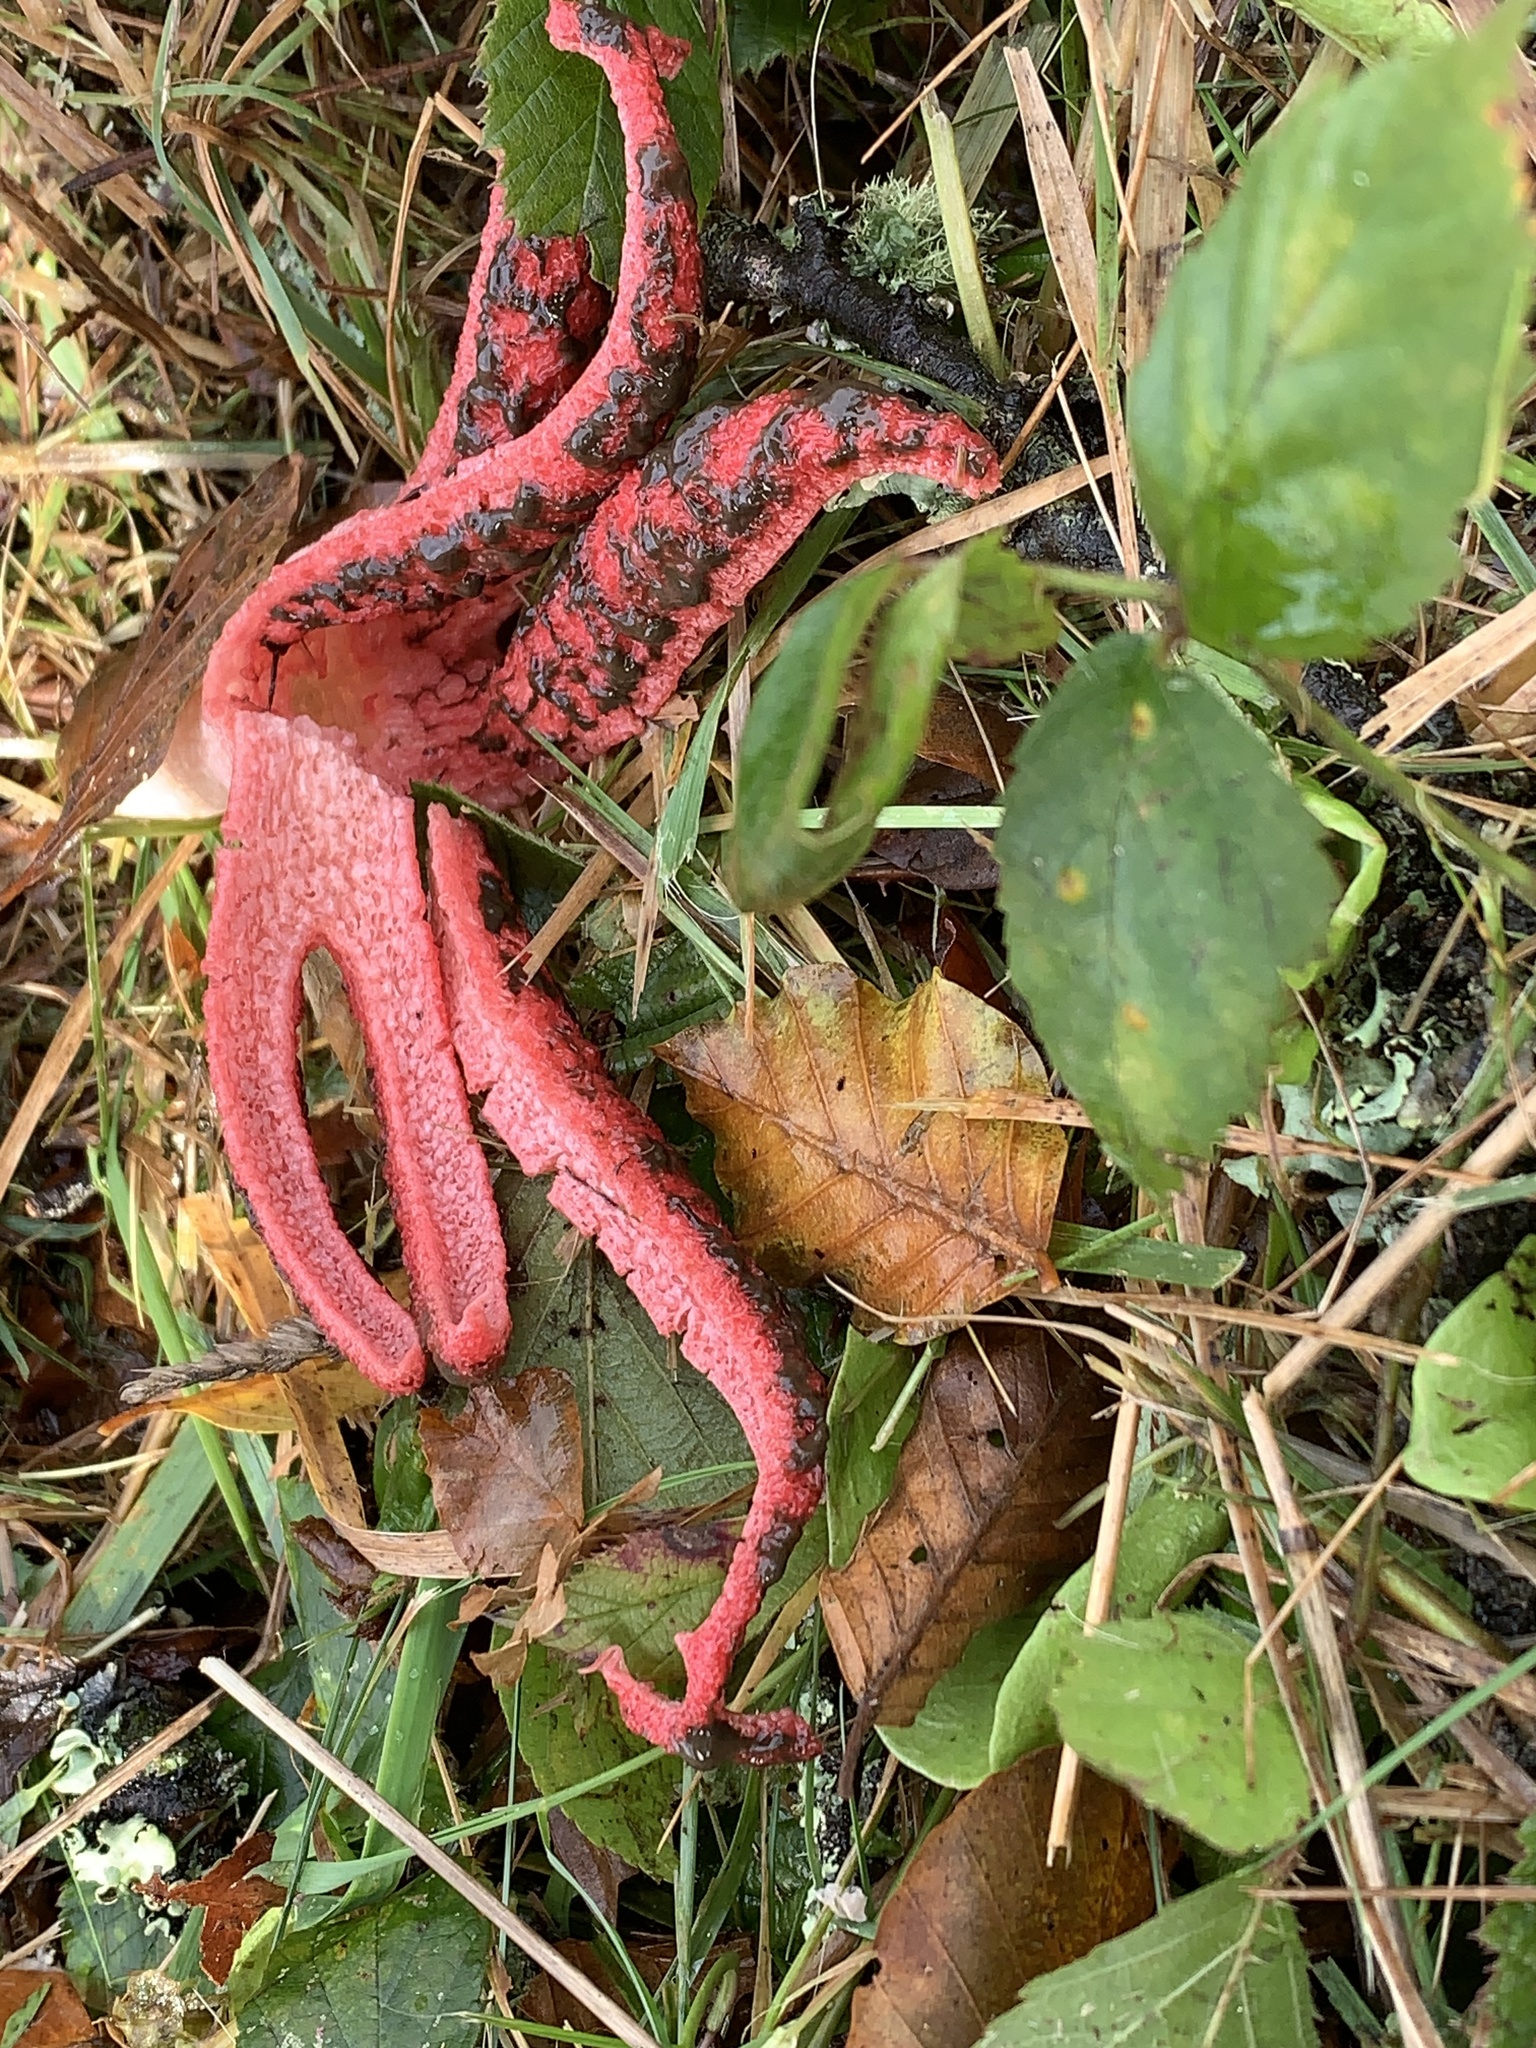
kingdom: Fungi
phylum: Basidiomycota
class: Agaricomycetes
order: Phallales
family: Phallaceae
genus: Clathrus
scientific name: Clathrus archeri
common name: Devil's fingers
